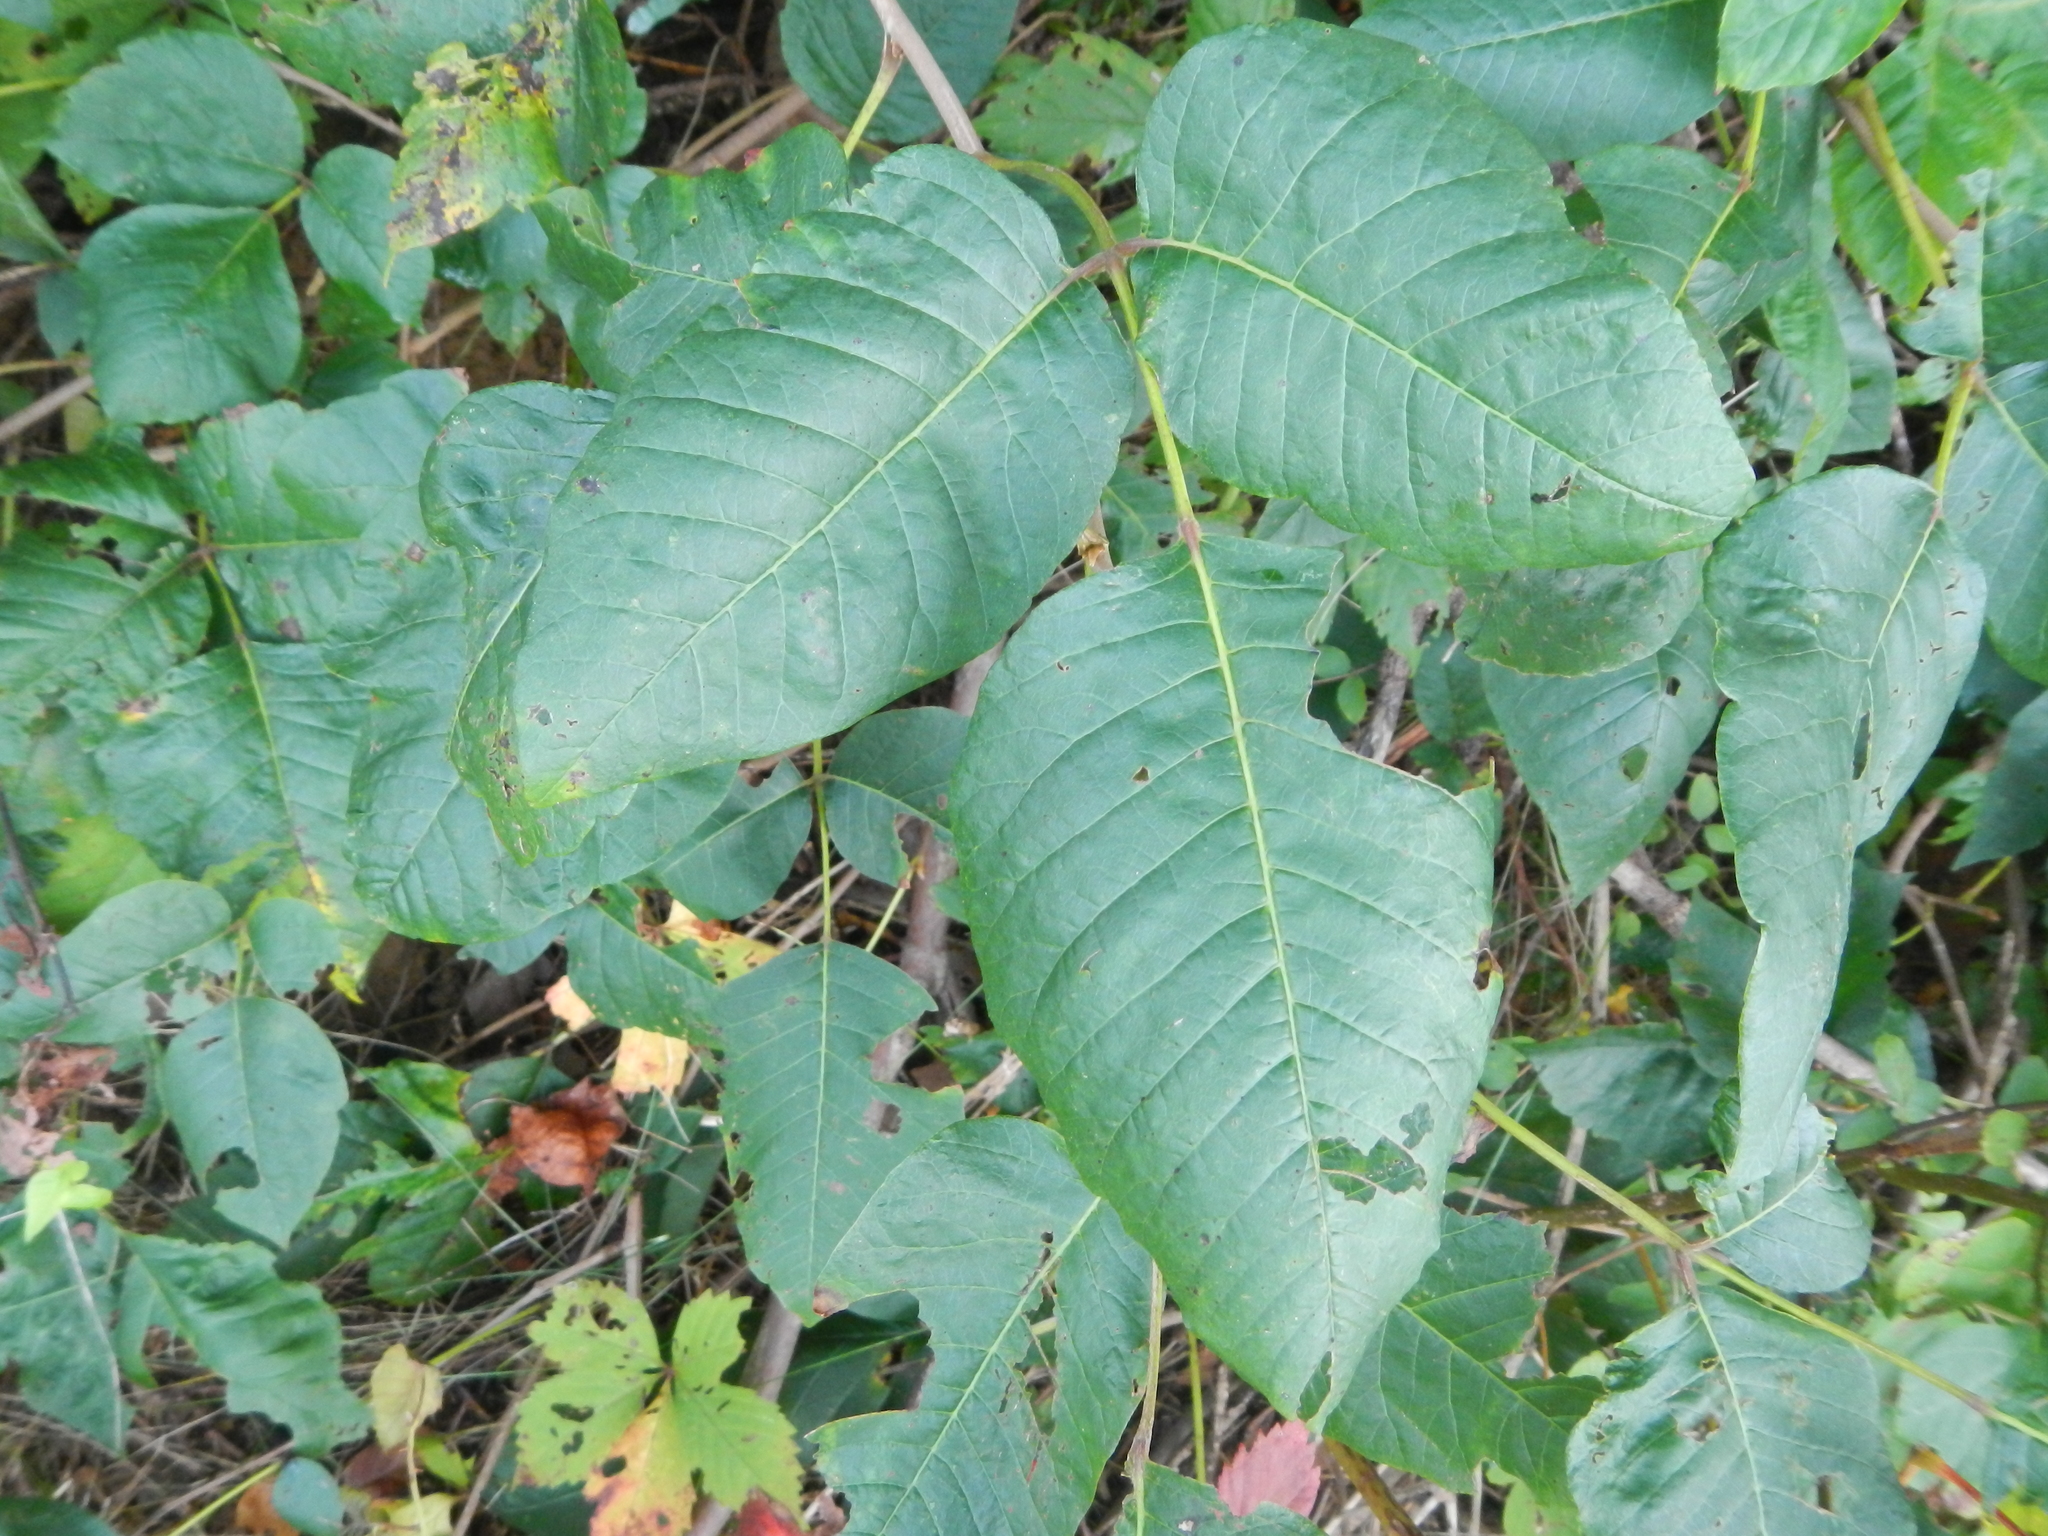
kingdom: Plantae
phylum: Tracheophyta
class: Magnoliopsida
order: Sapindales
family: Anacardiaceae
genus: Toxicodendron
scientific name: Toxicodendron radicans
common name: Poison ivy
